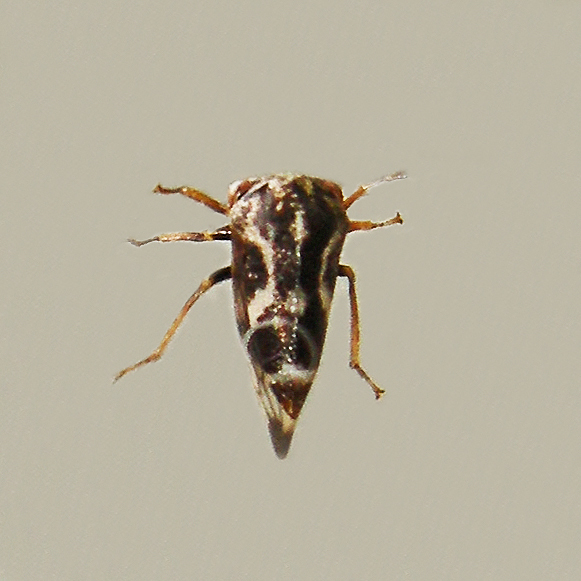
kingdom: Animalia
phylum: Arthropoda
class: Insecta
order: Hemiptera
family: Membracidae
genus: Ophiderma
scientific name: Ophiderma definita
